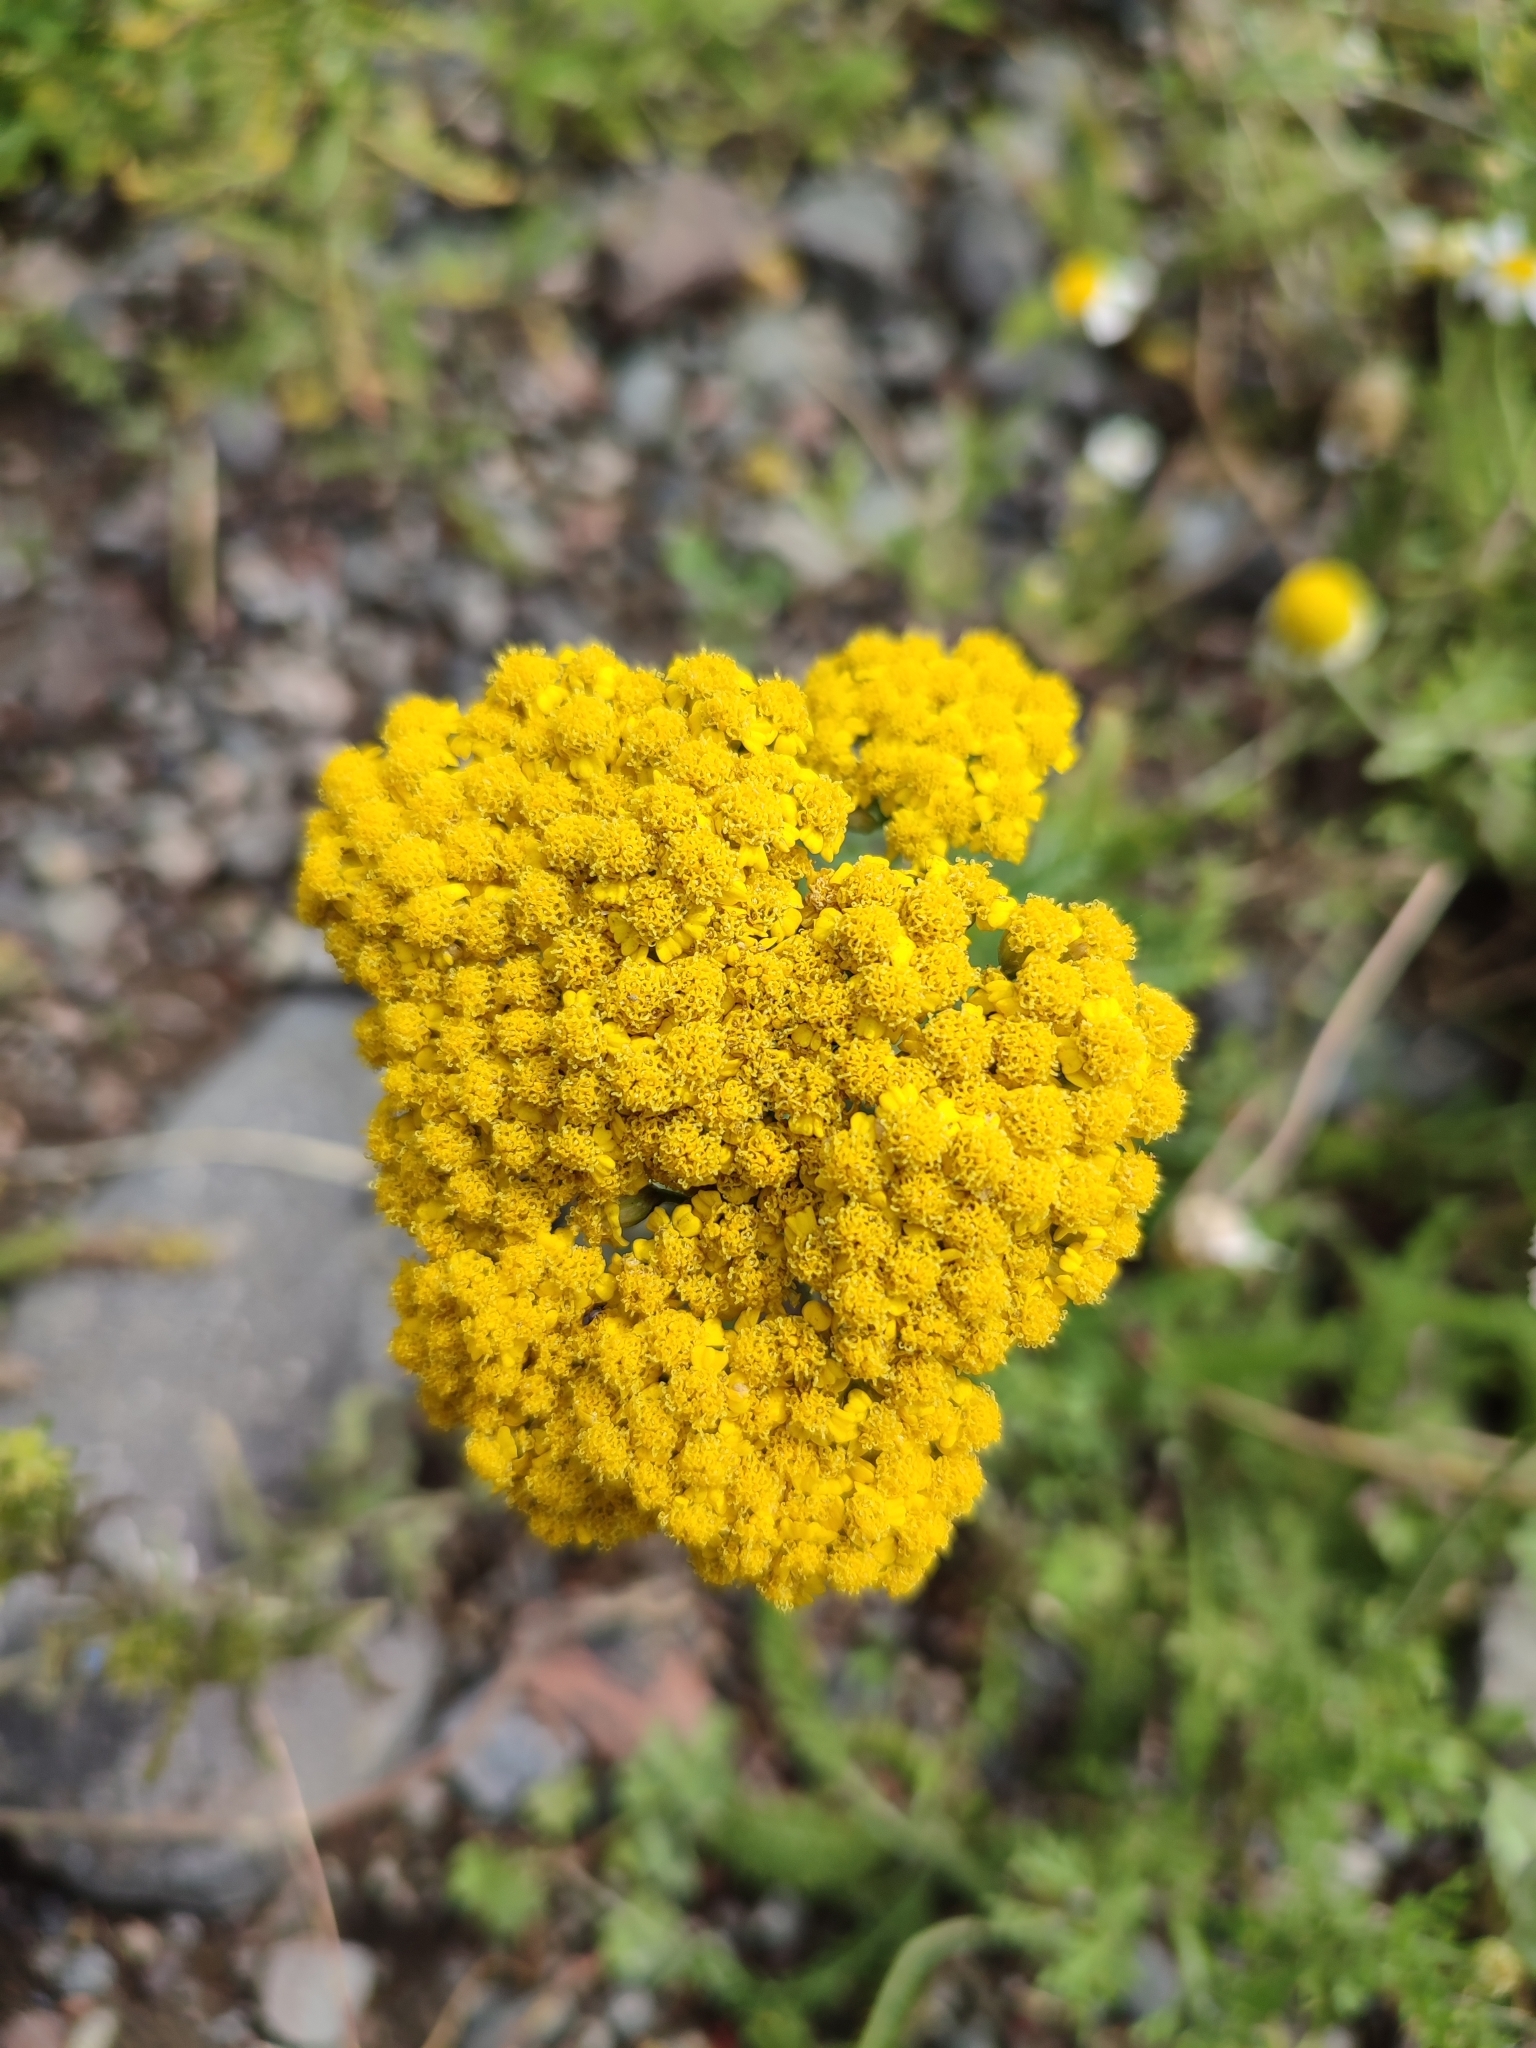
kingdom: Plantae
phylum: Tracheophyta
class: Magnoliopsida
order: Asterales
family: Asteraceae
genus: Achillea
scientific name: Achillea filipendulina
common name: Fernleaf yarrow
